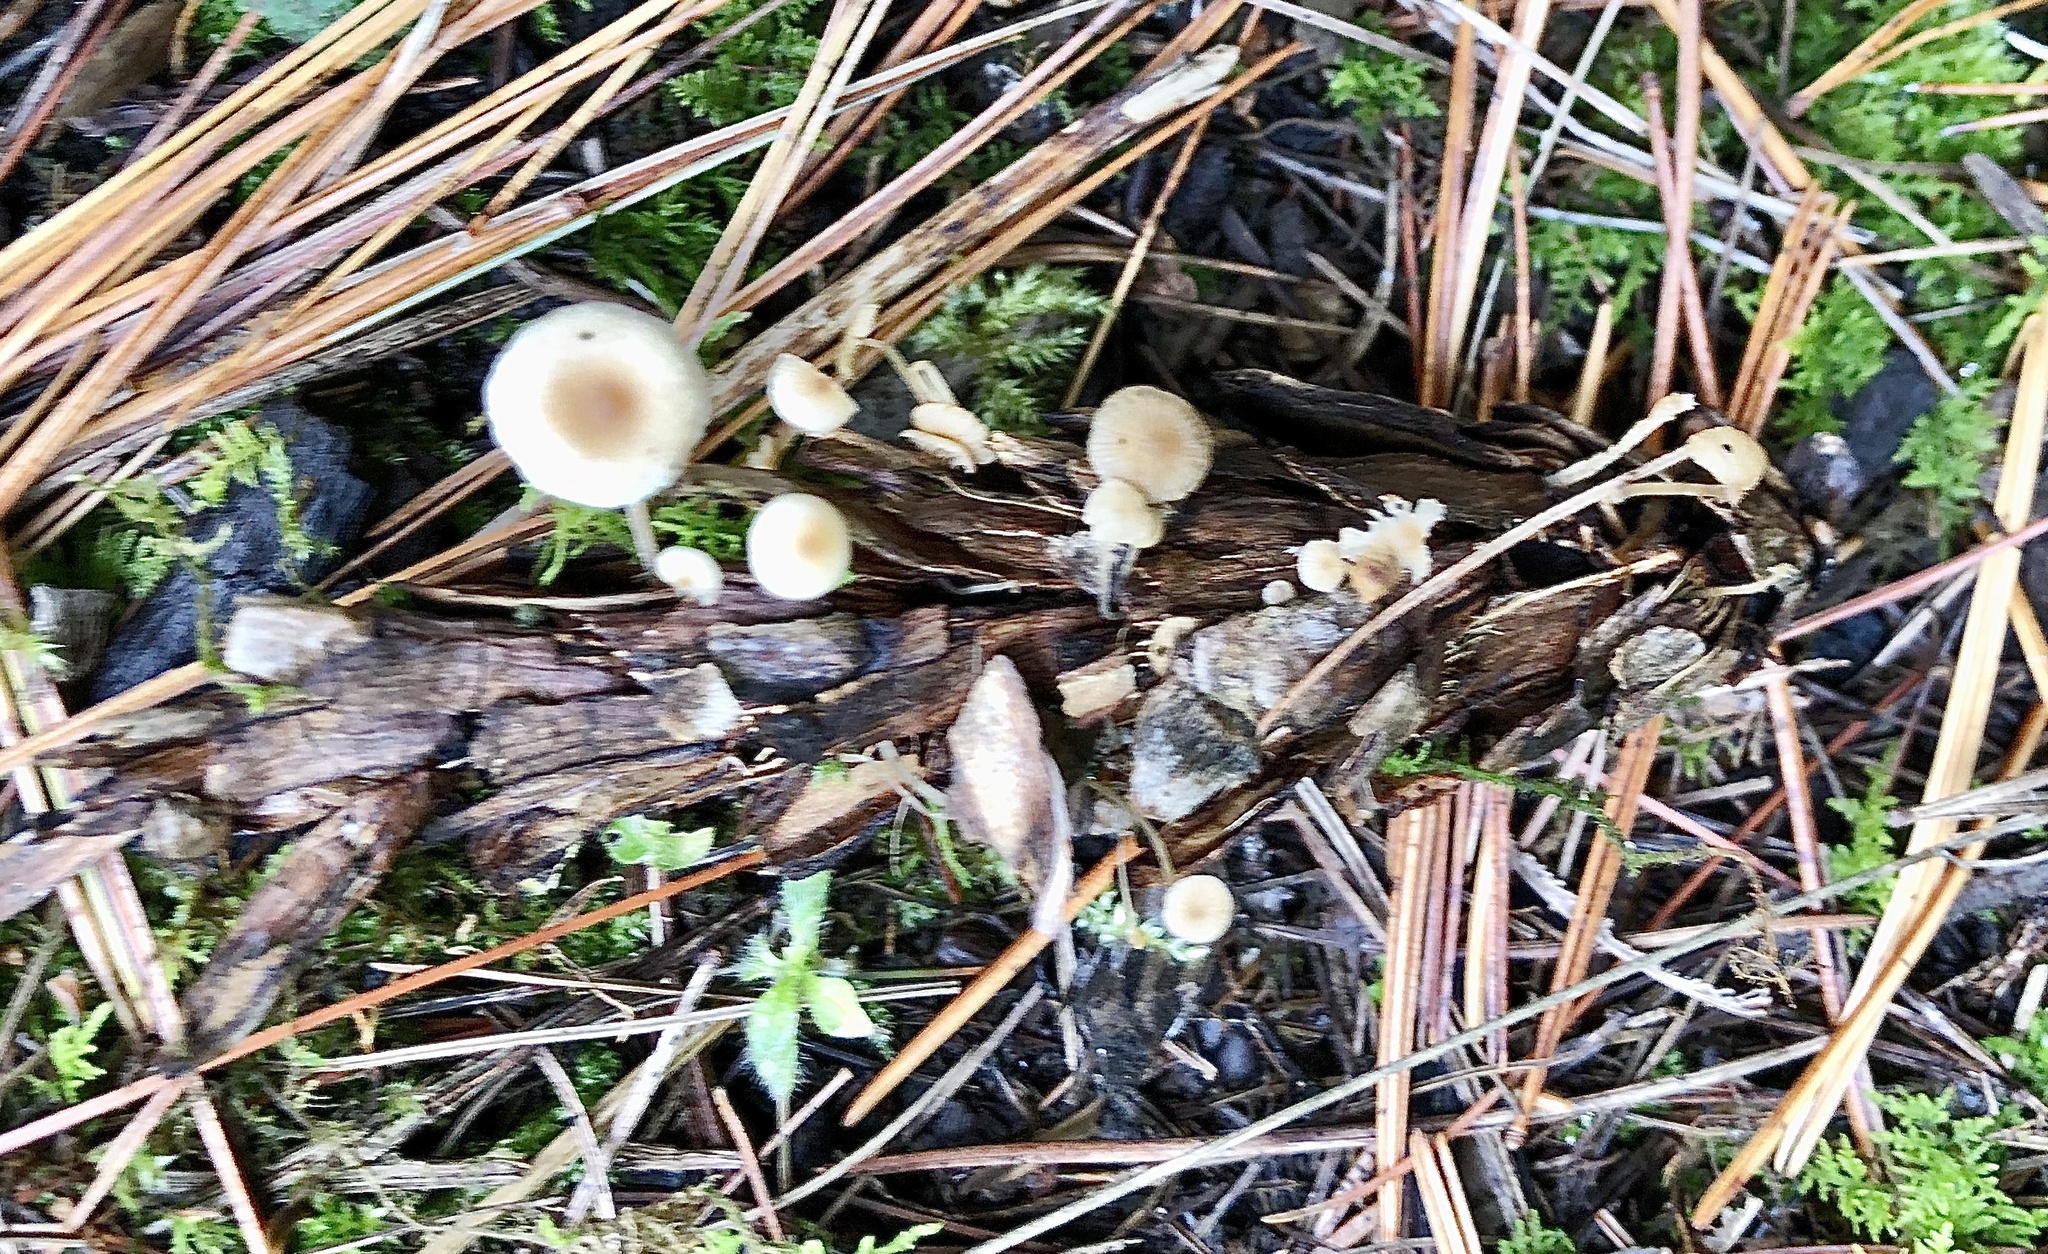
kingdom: Fungi
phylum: Basidiomycota
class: Agaricomycetes
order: Agaricales
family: Marasmiaceae
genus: Baeospora
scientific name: Baeospora myosura
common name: Conifercone cap
